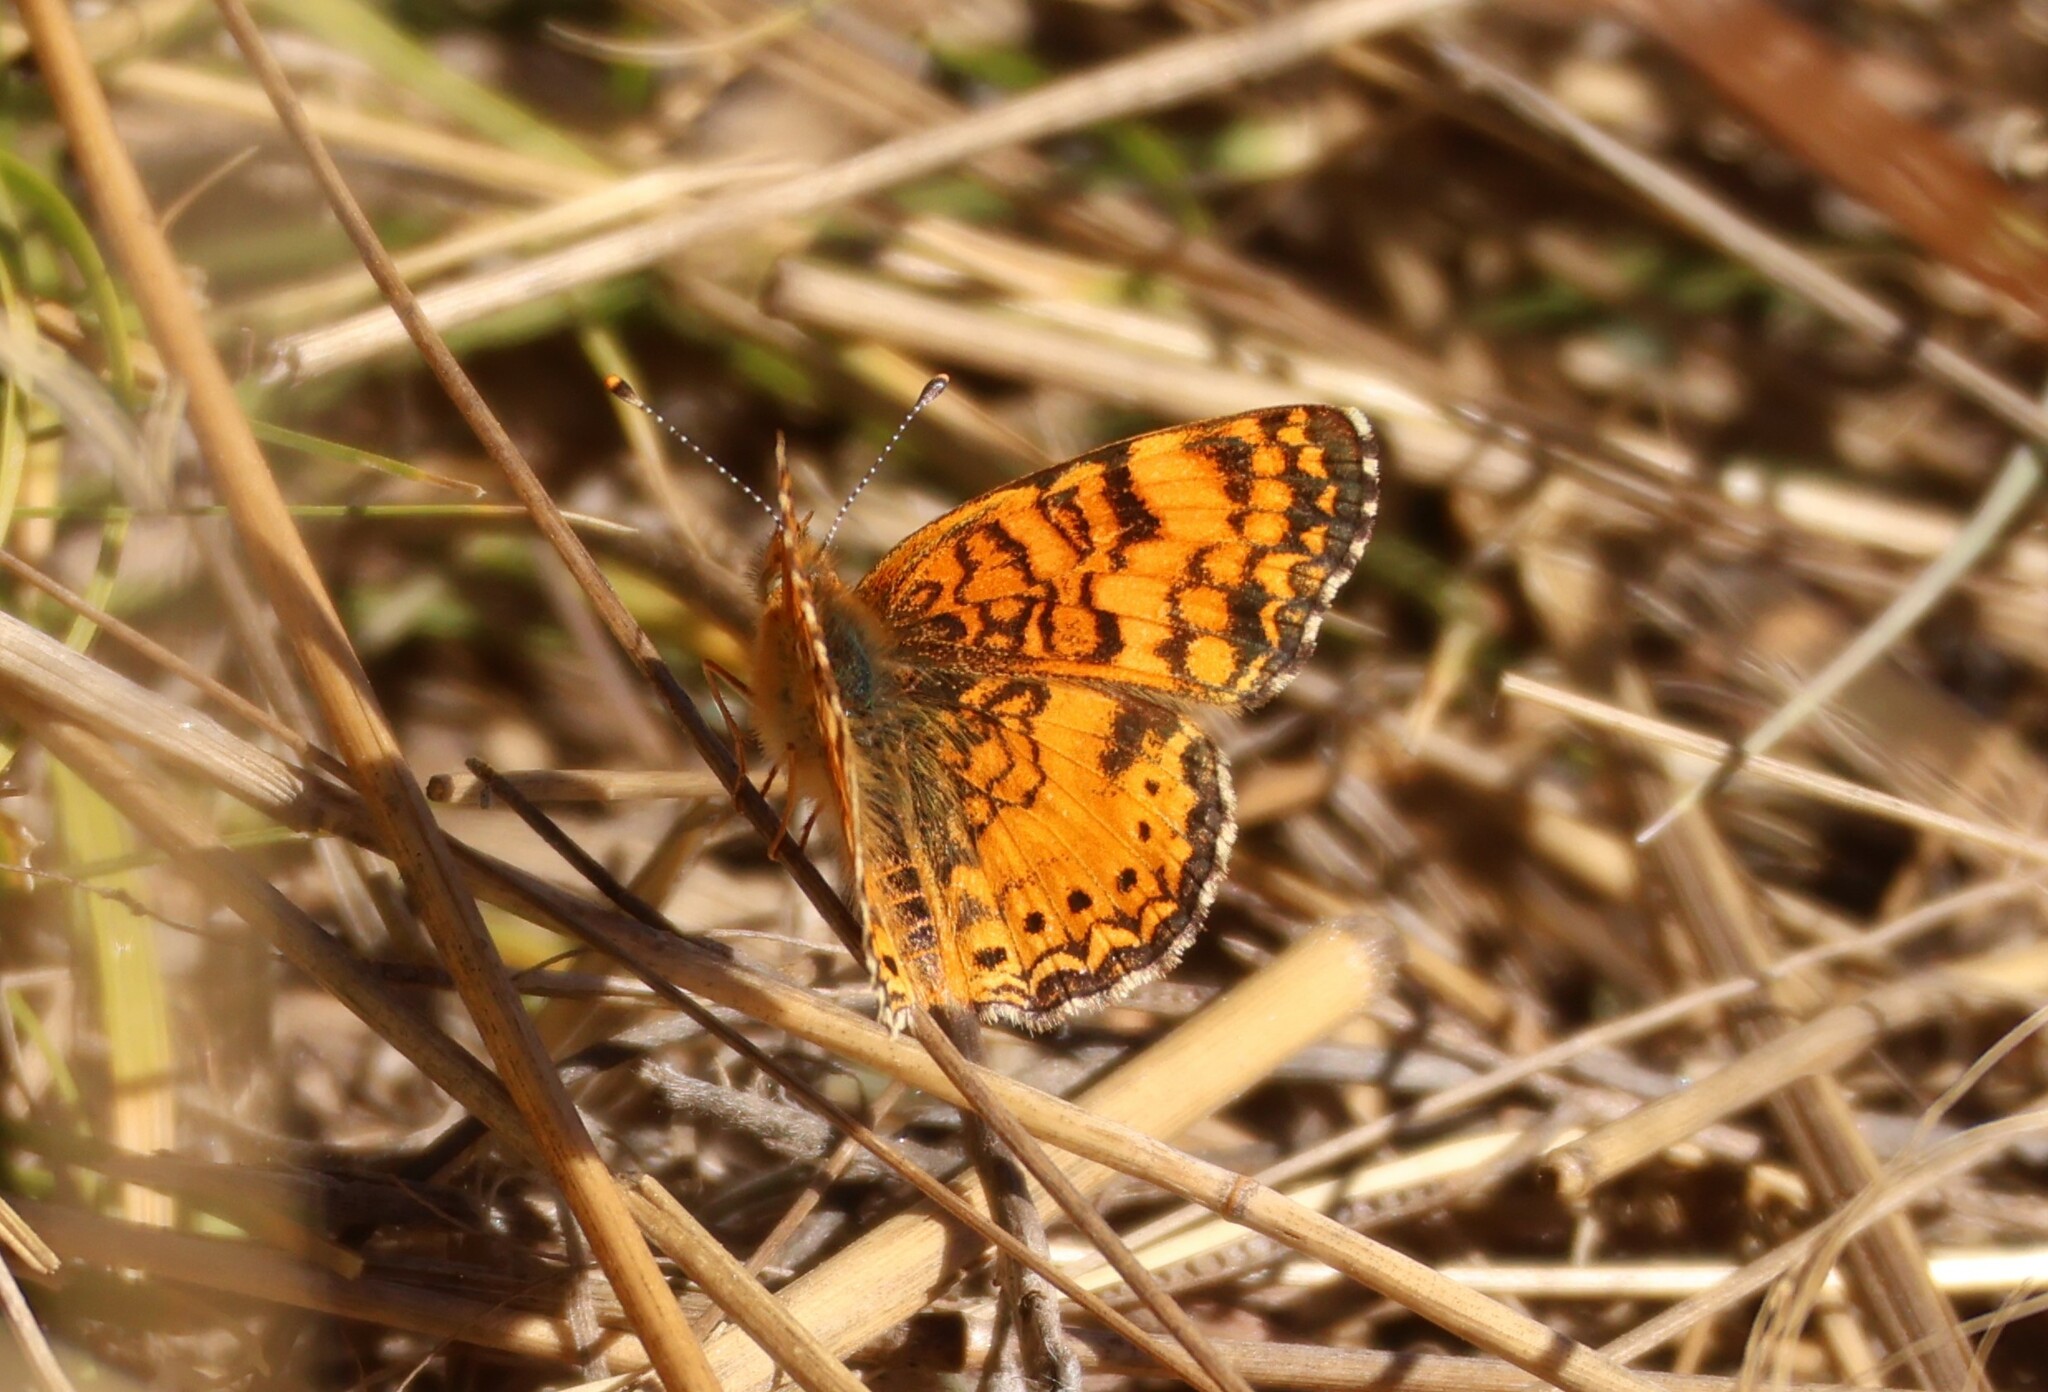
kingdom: Animalia
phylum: Arthropoda
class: Insecta
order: Lepidoptera
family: Nymphalidae
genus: Eresia
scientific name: Eresia aveyrona
